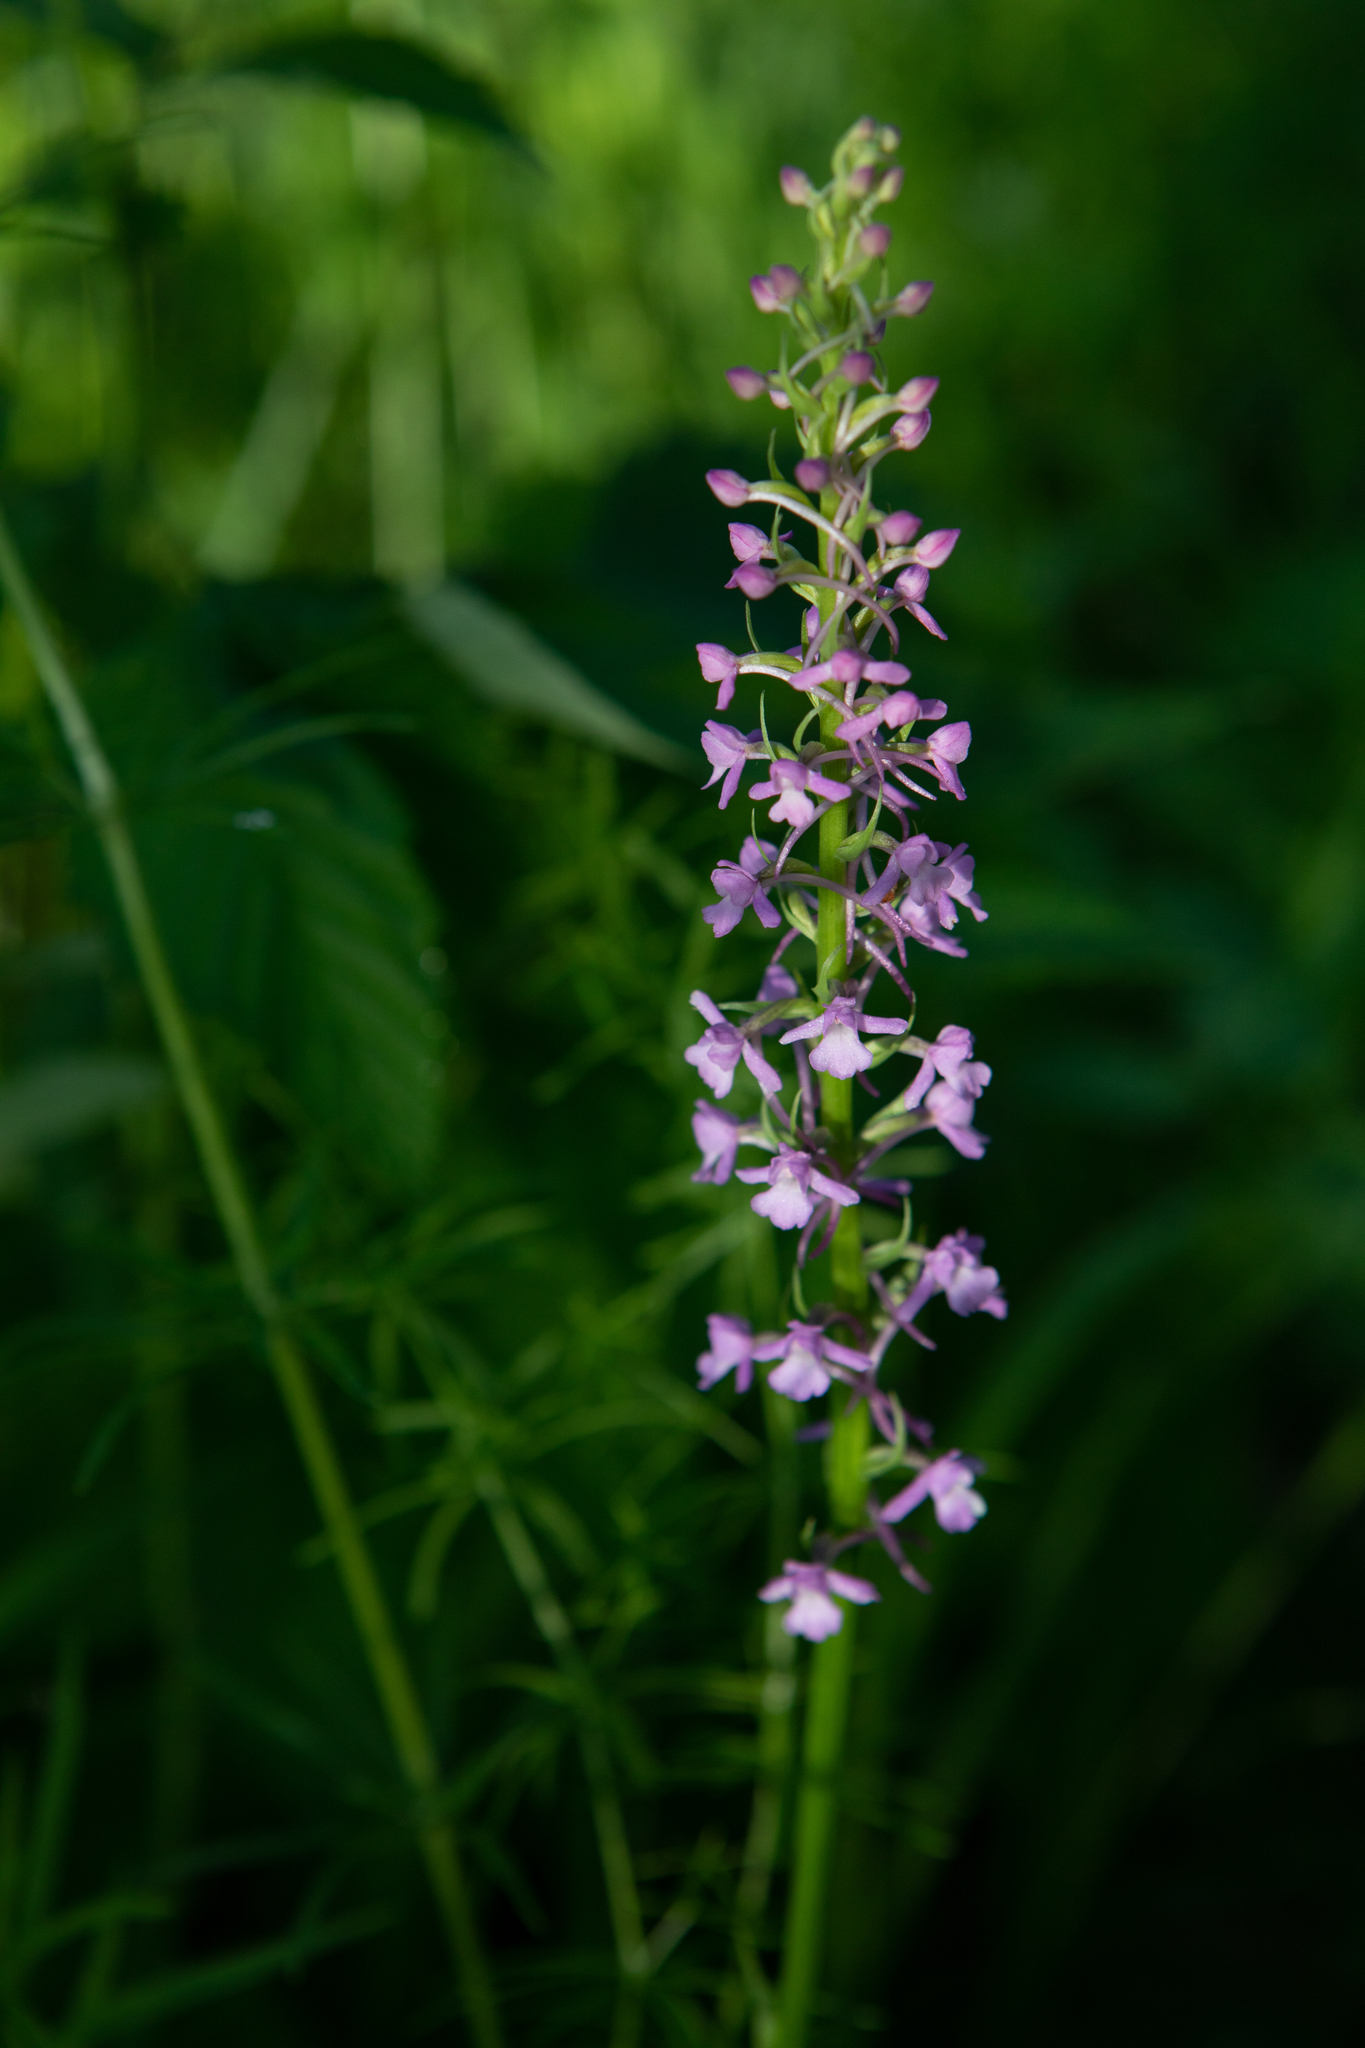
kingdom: Plantae
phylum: Tracheophyta
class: Liliopsida
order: Asparagales
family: Orchidaceae
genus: Gymnadenia
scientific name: Gymnadenia conopsea
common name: Fragrant orchid
